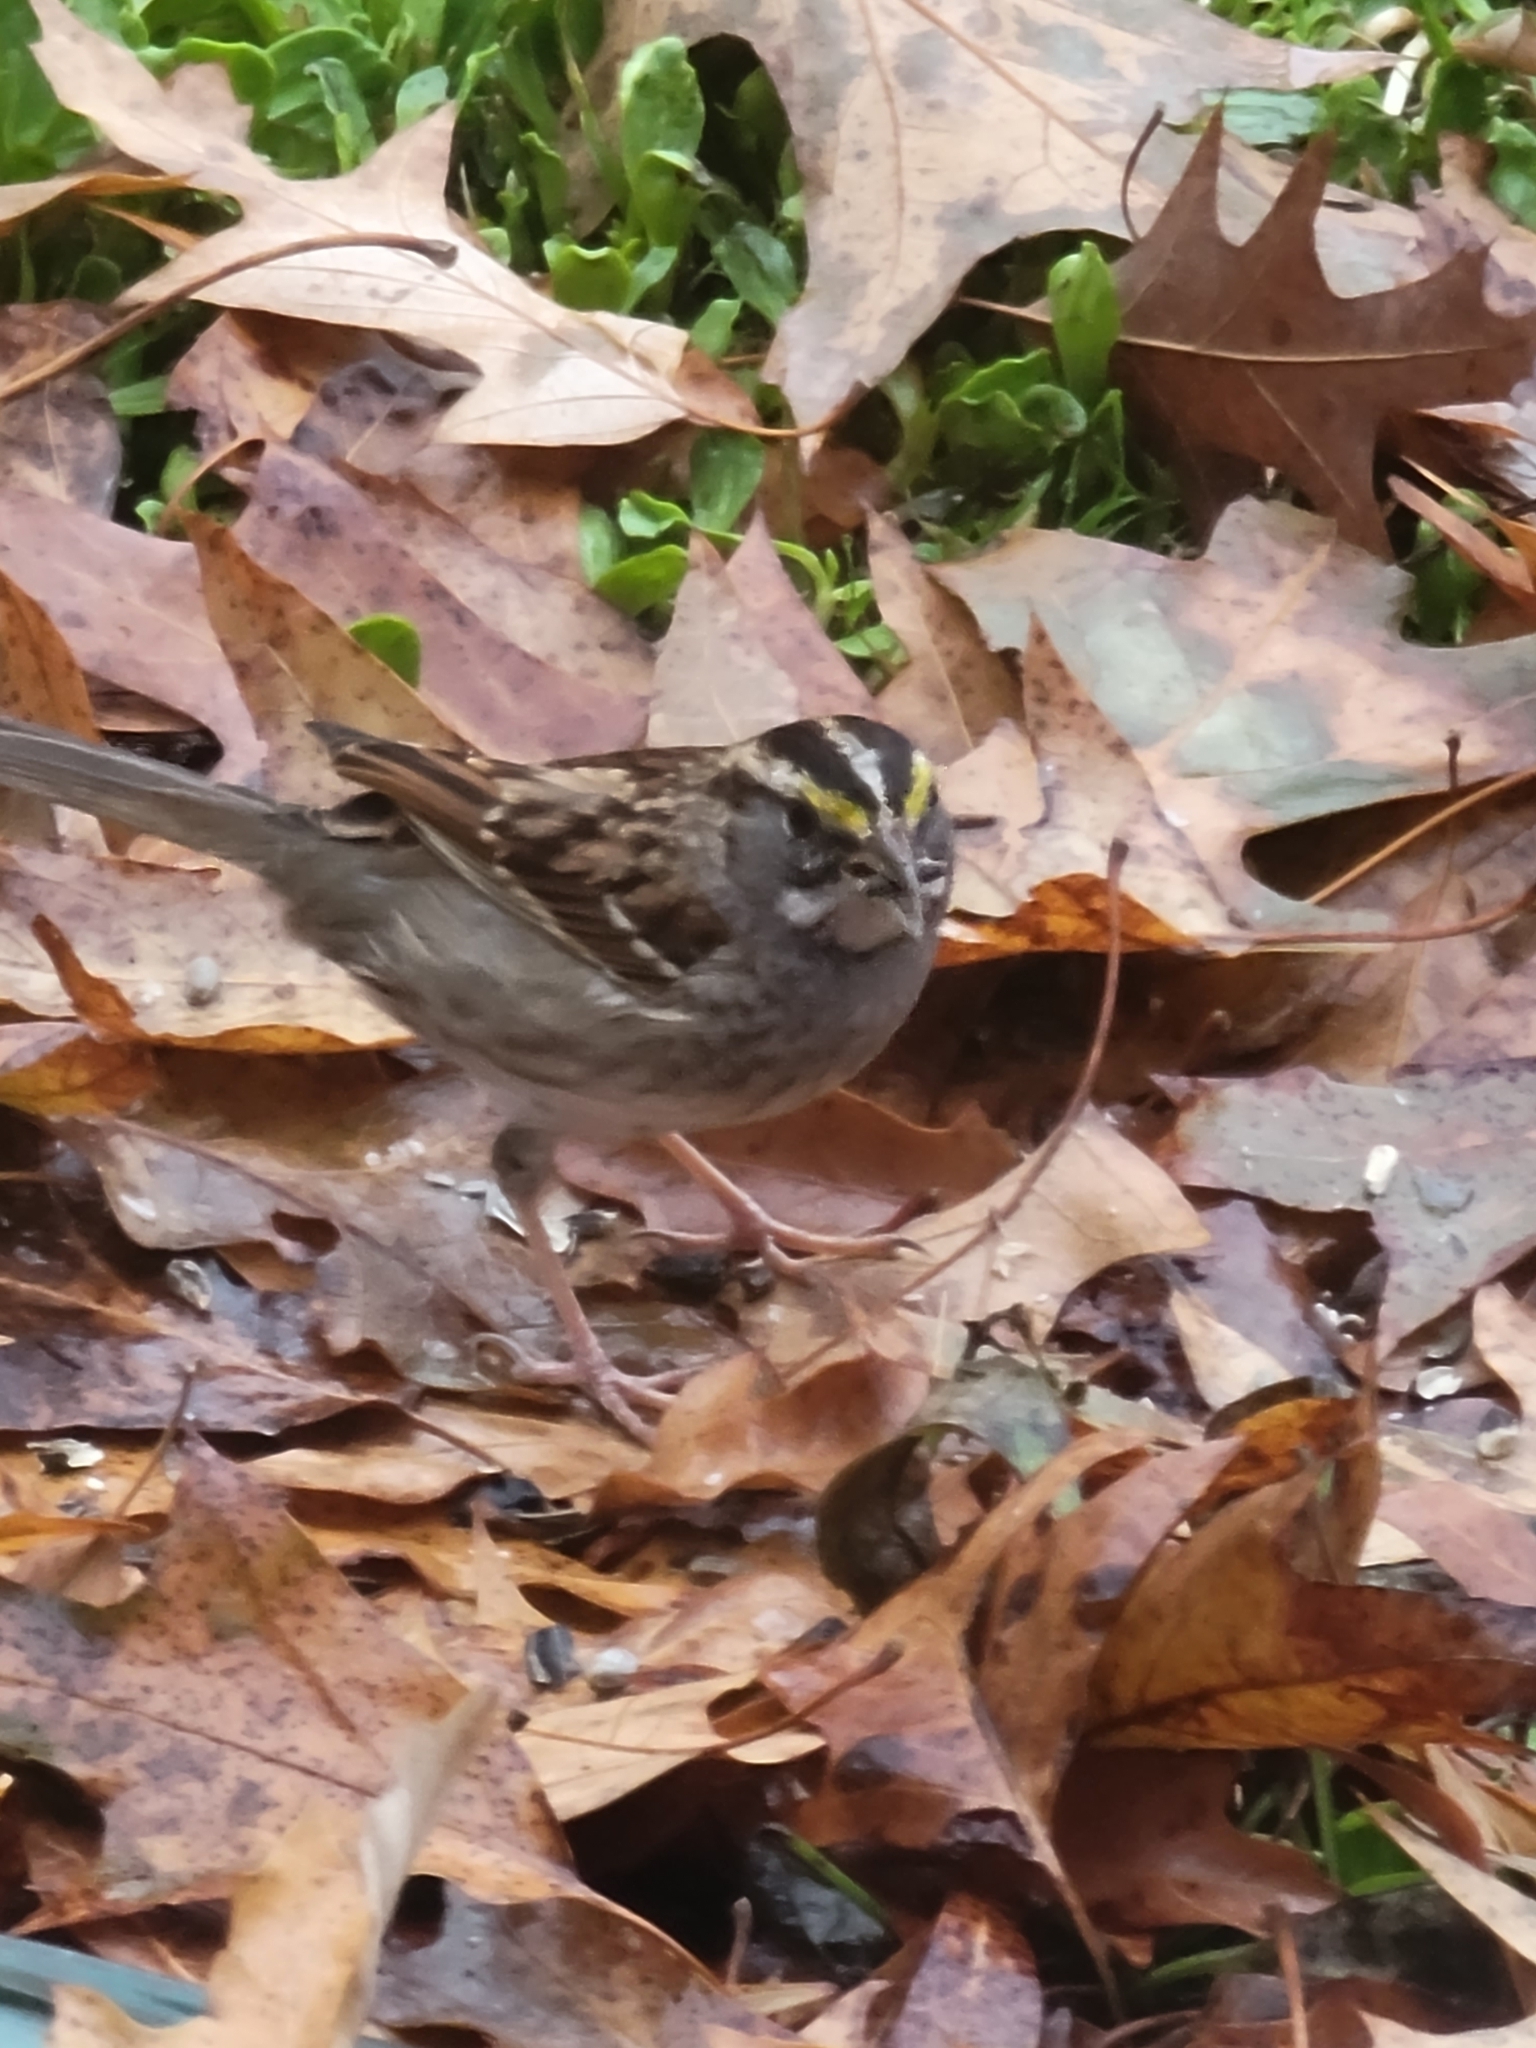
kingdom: Animalia
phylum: Chordata
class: Aves
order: Passeriformes
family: Passerellidae
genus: Zonotrichia
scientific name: Zonotrichia albicollis
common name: White-throated sparrow
